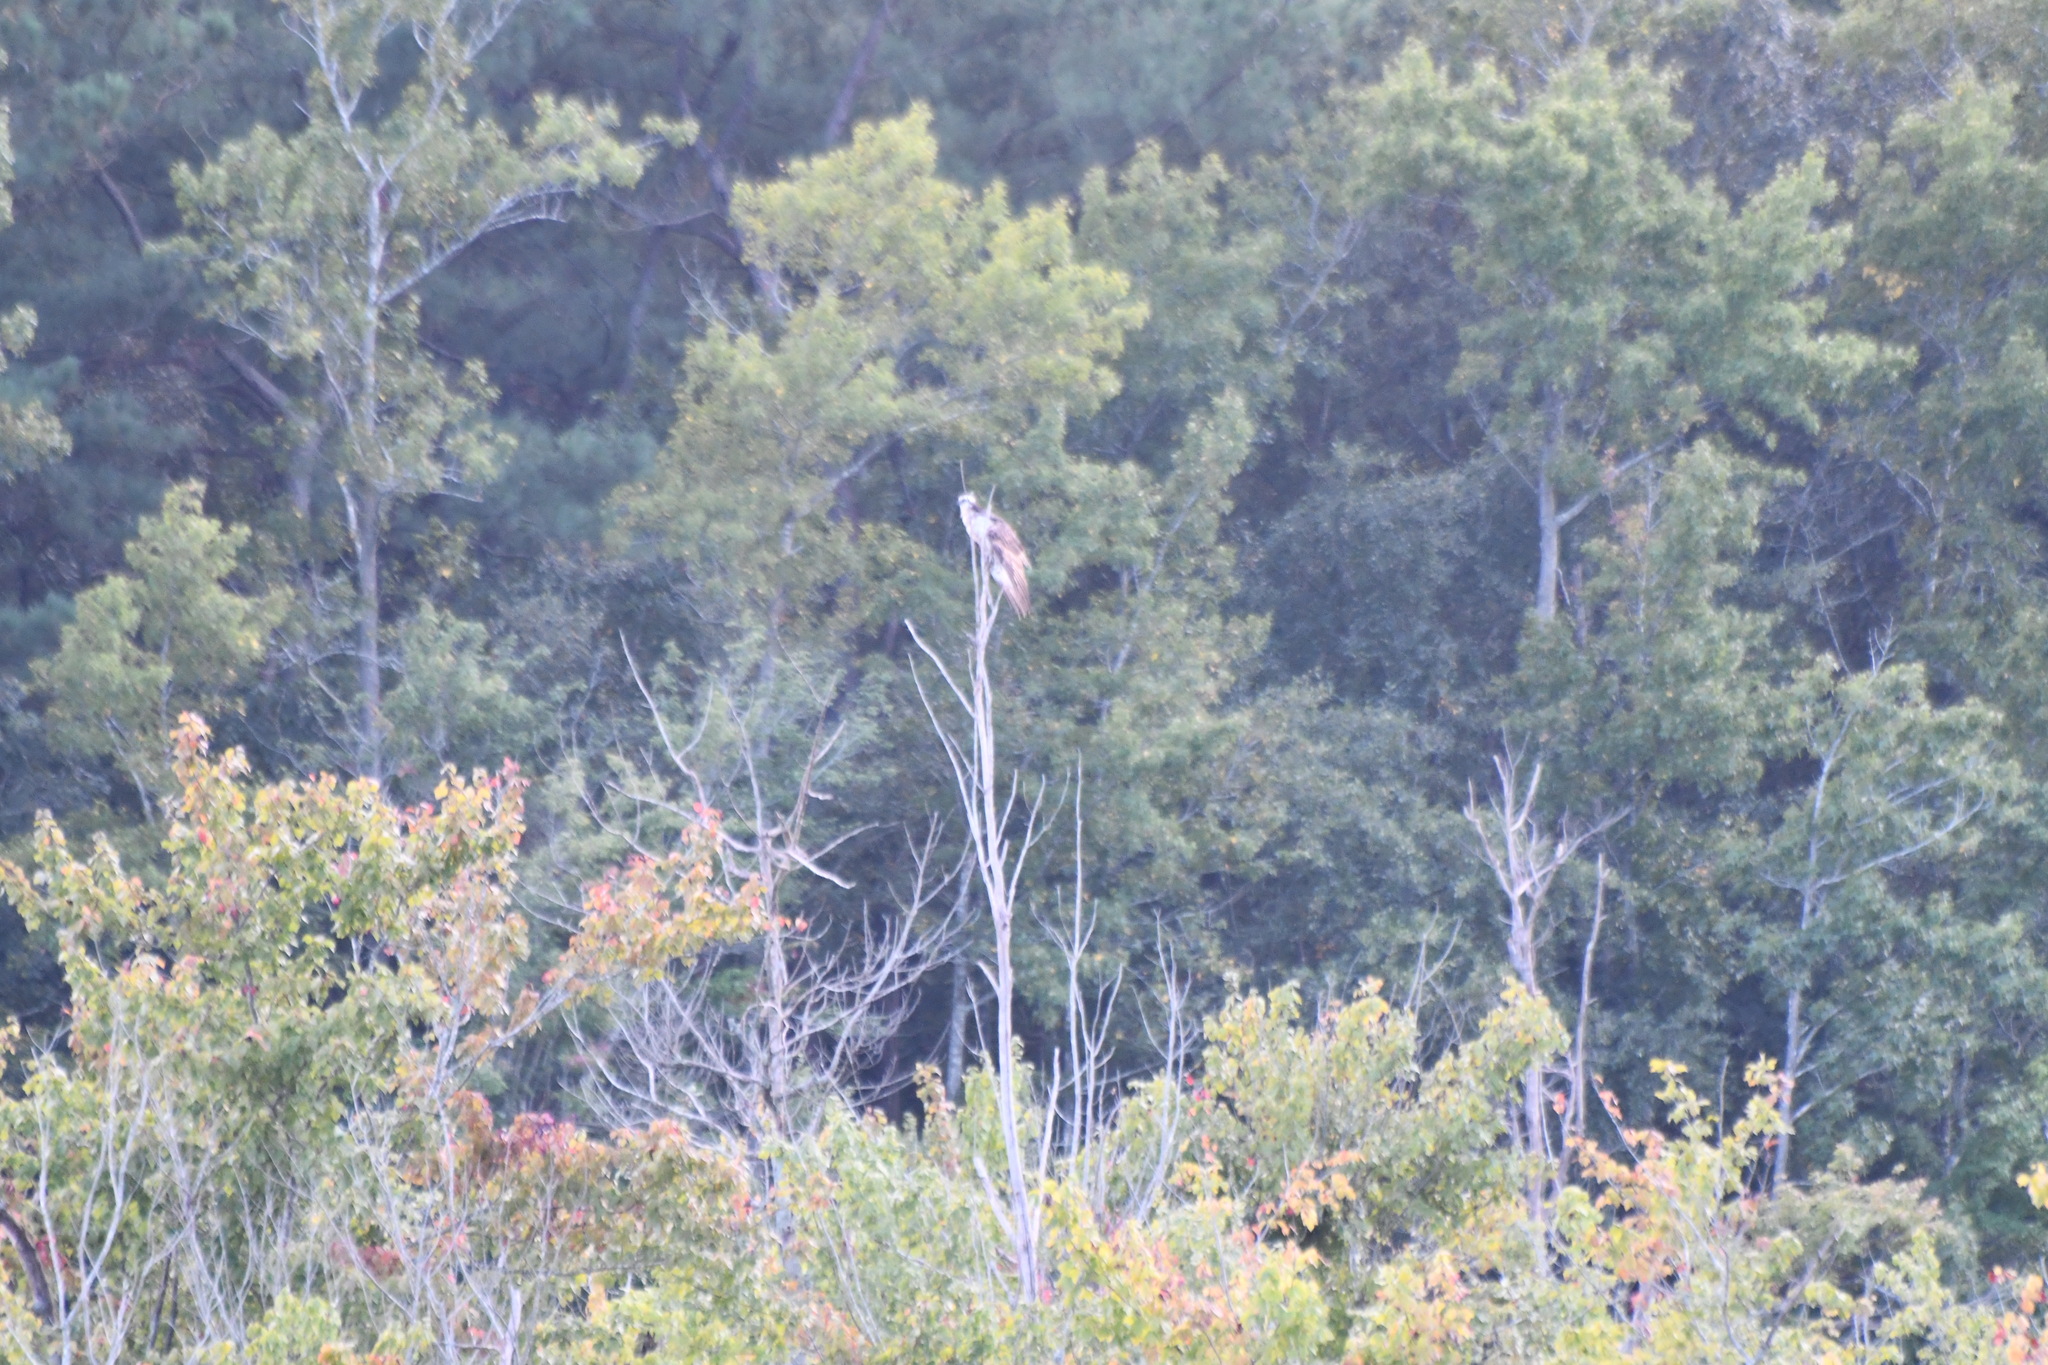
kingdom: Animalia
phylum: Chordata
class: Aves
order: Accipitriformes
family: Pandionidae
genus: Pandion
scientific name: Pandion haliaetus
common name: Osprey
